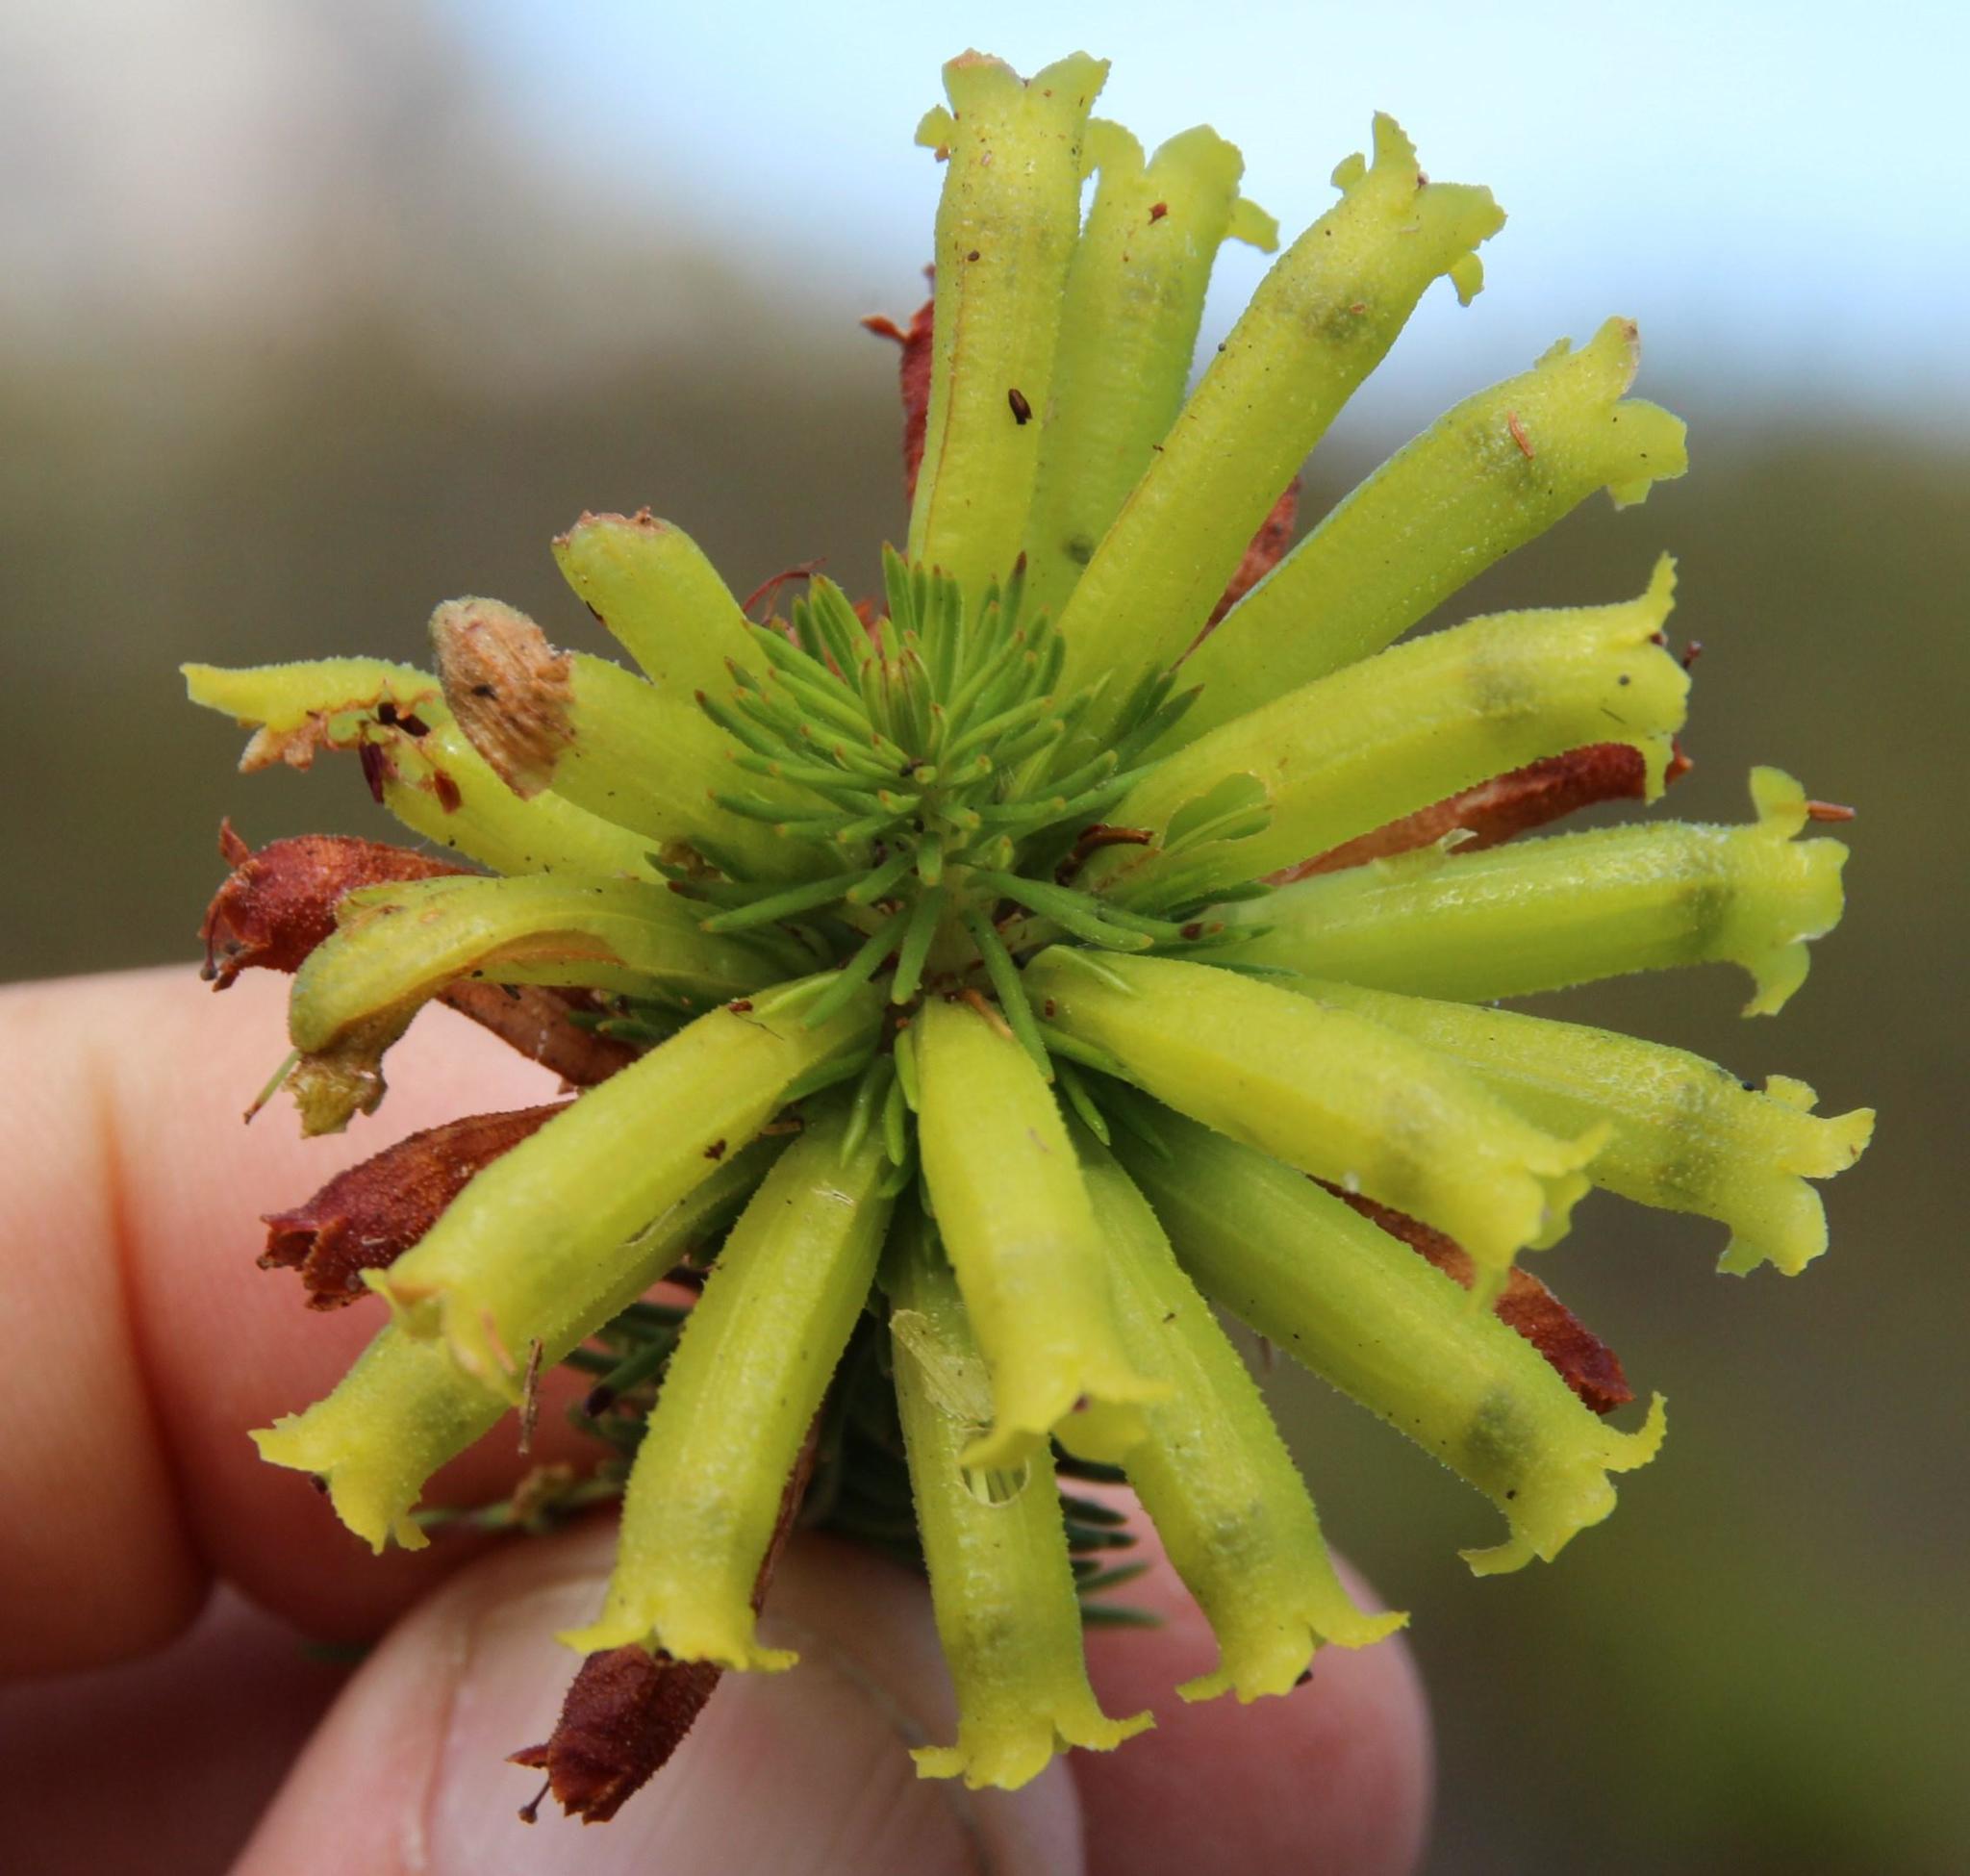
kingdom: Plantae
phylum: Tracheophyta
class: Magnoliopsida
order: Ericales
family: Ericaceae
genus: Erica
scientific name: Erica viscaria
